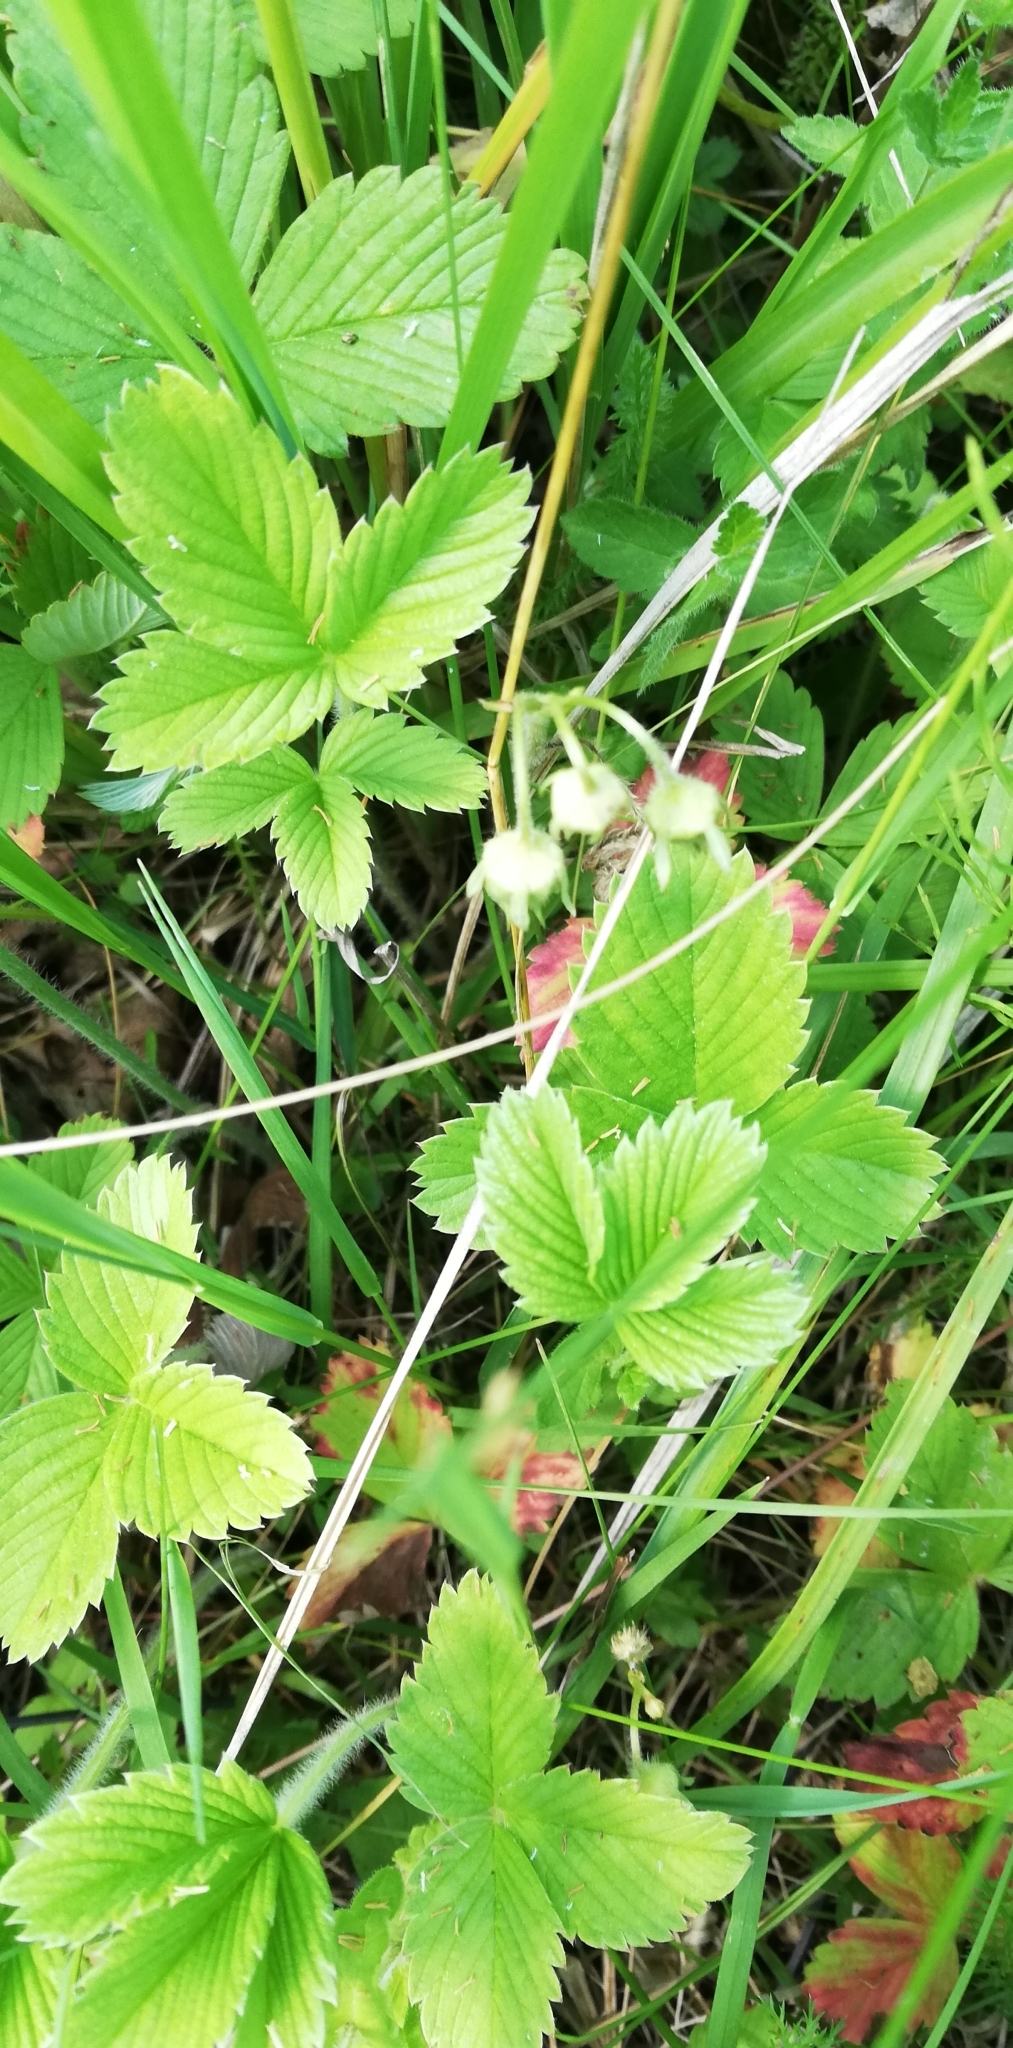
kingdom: Plantae
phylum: Tracheophyta
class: Magnoliopsida
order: Rosales
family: Rosaceae
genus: Fragaria
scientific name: Fragaria viridis
